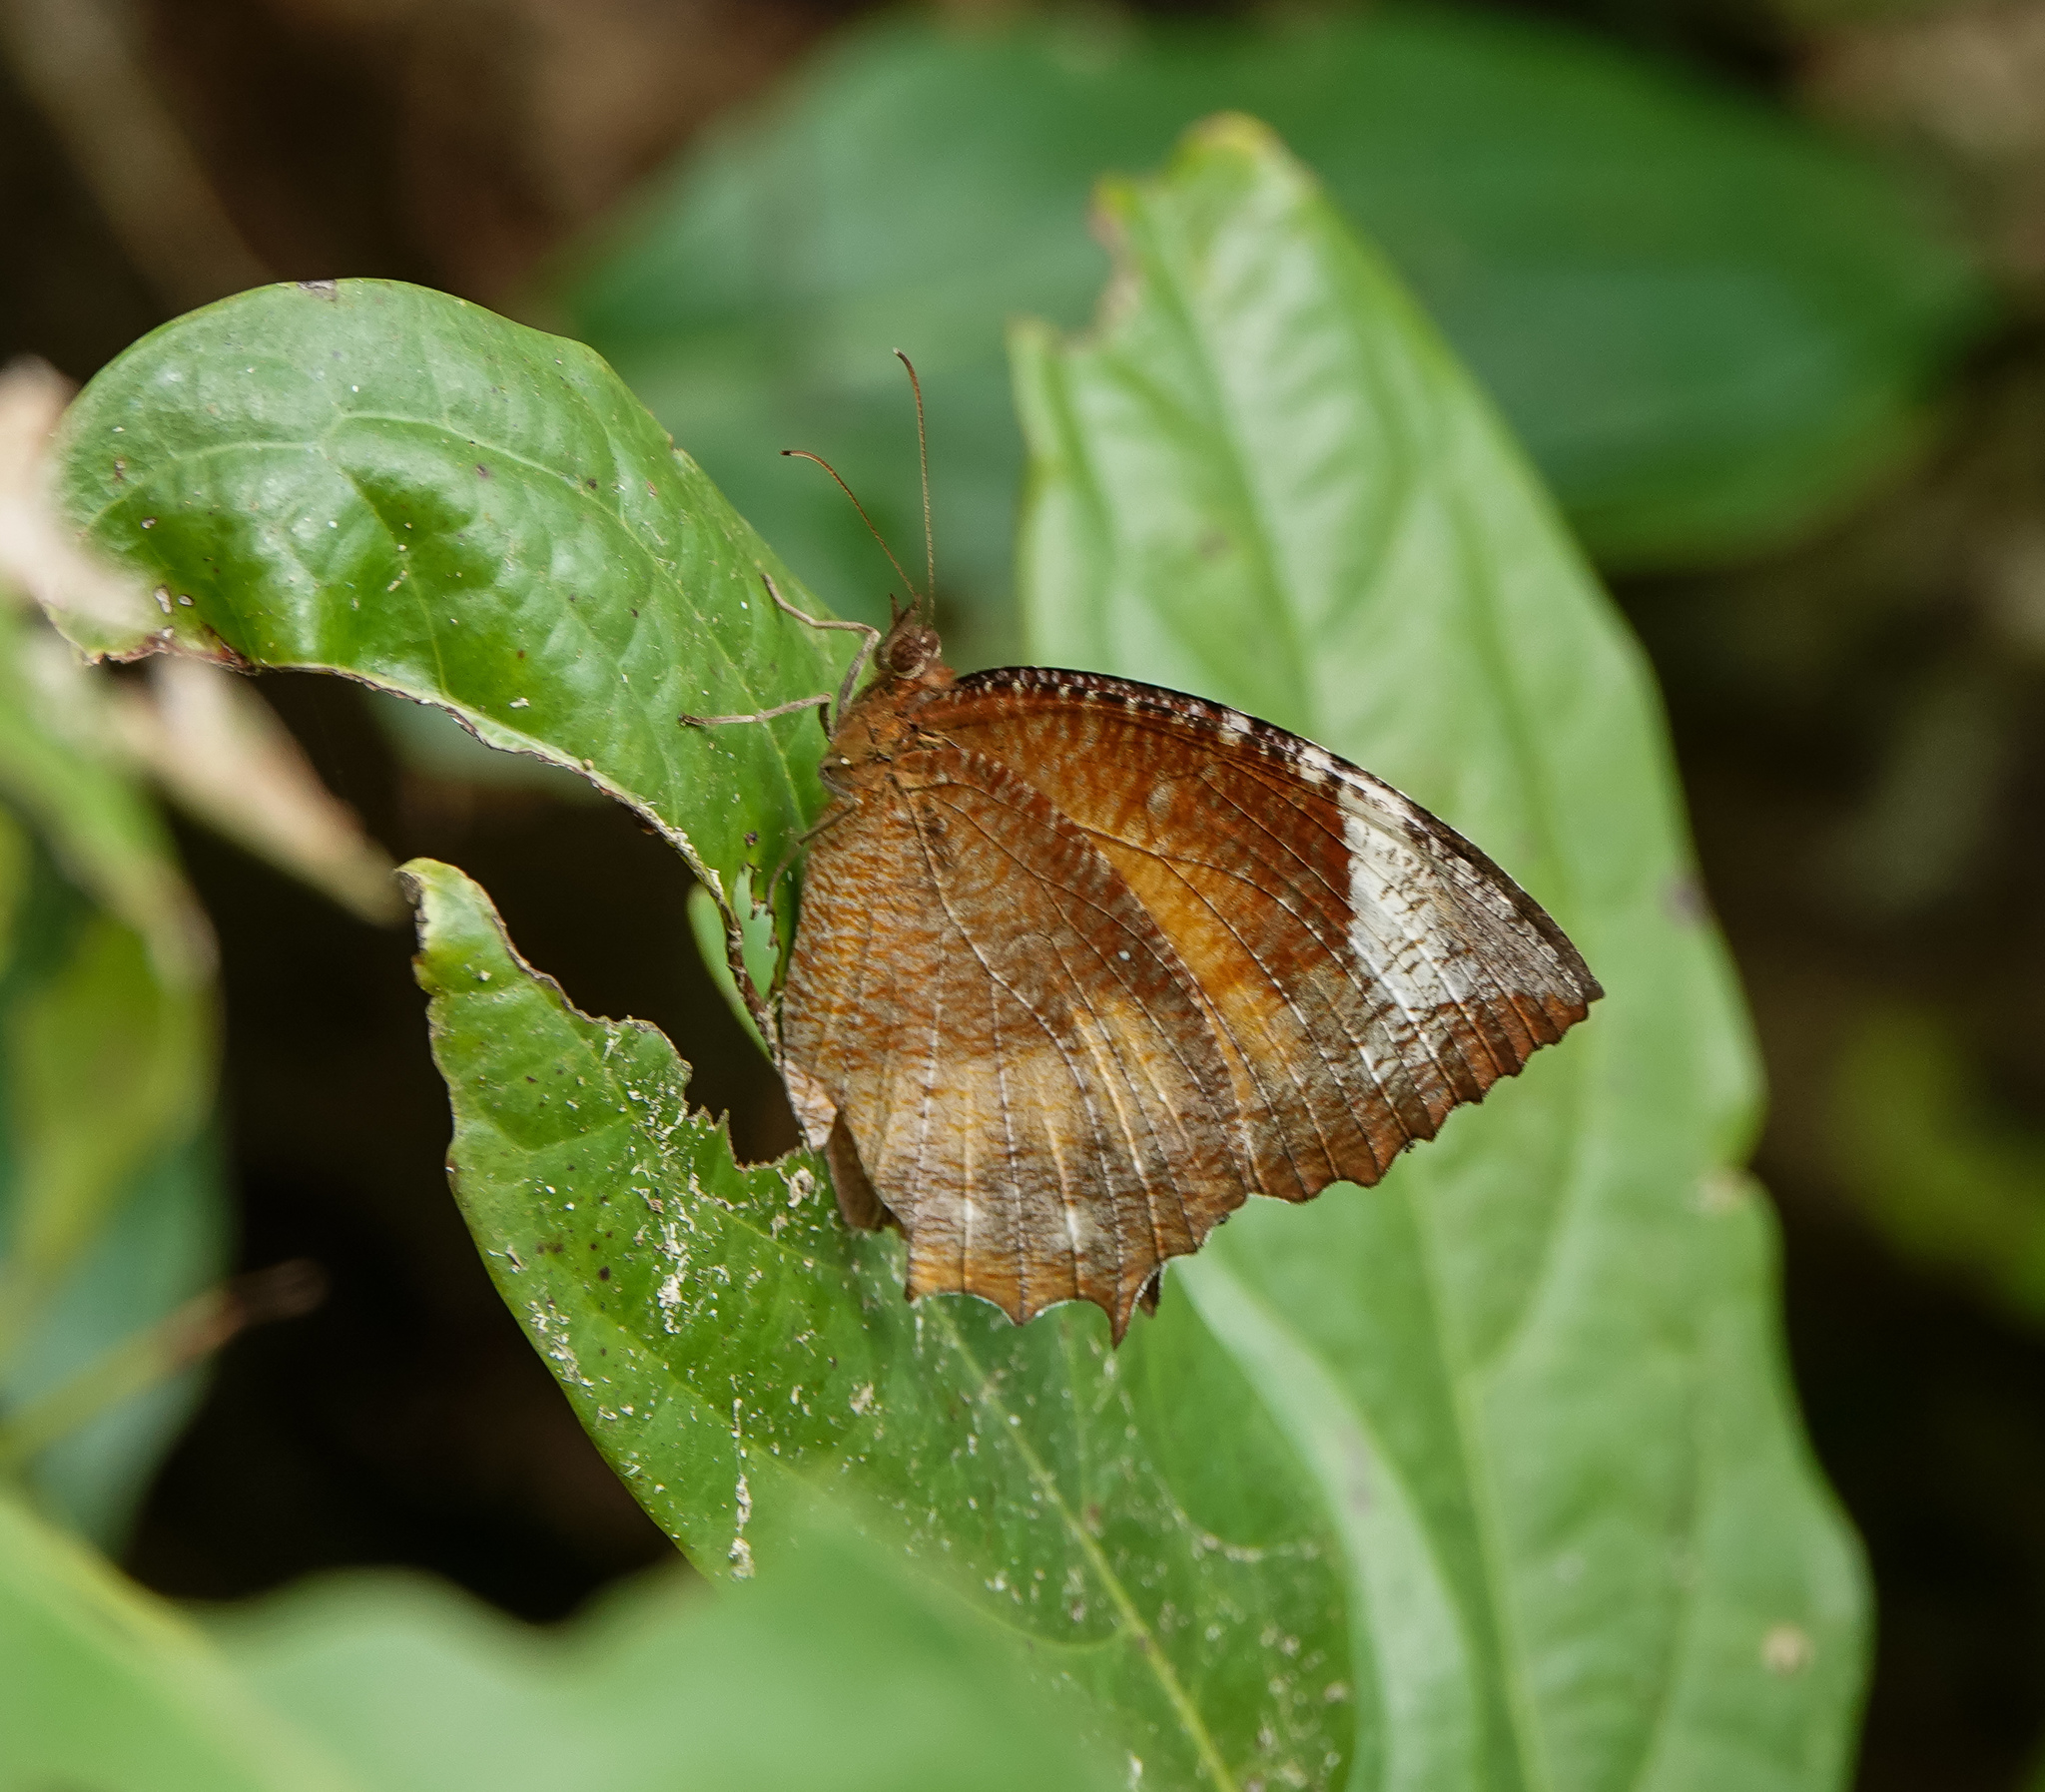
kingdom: Animalia
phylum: Arthropoda
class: Insecta
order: Lepidoptera
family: Nymphalidae
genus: Elymnias
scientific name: Elymnias hypermnestra
